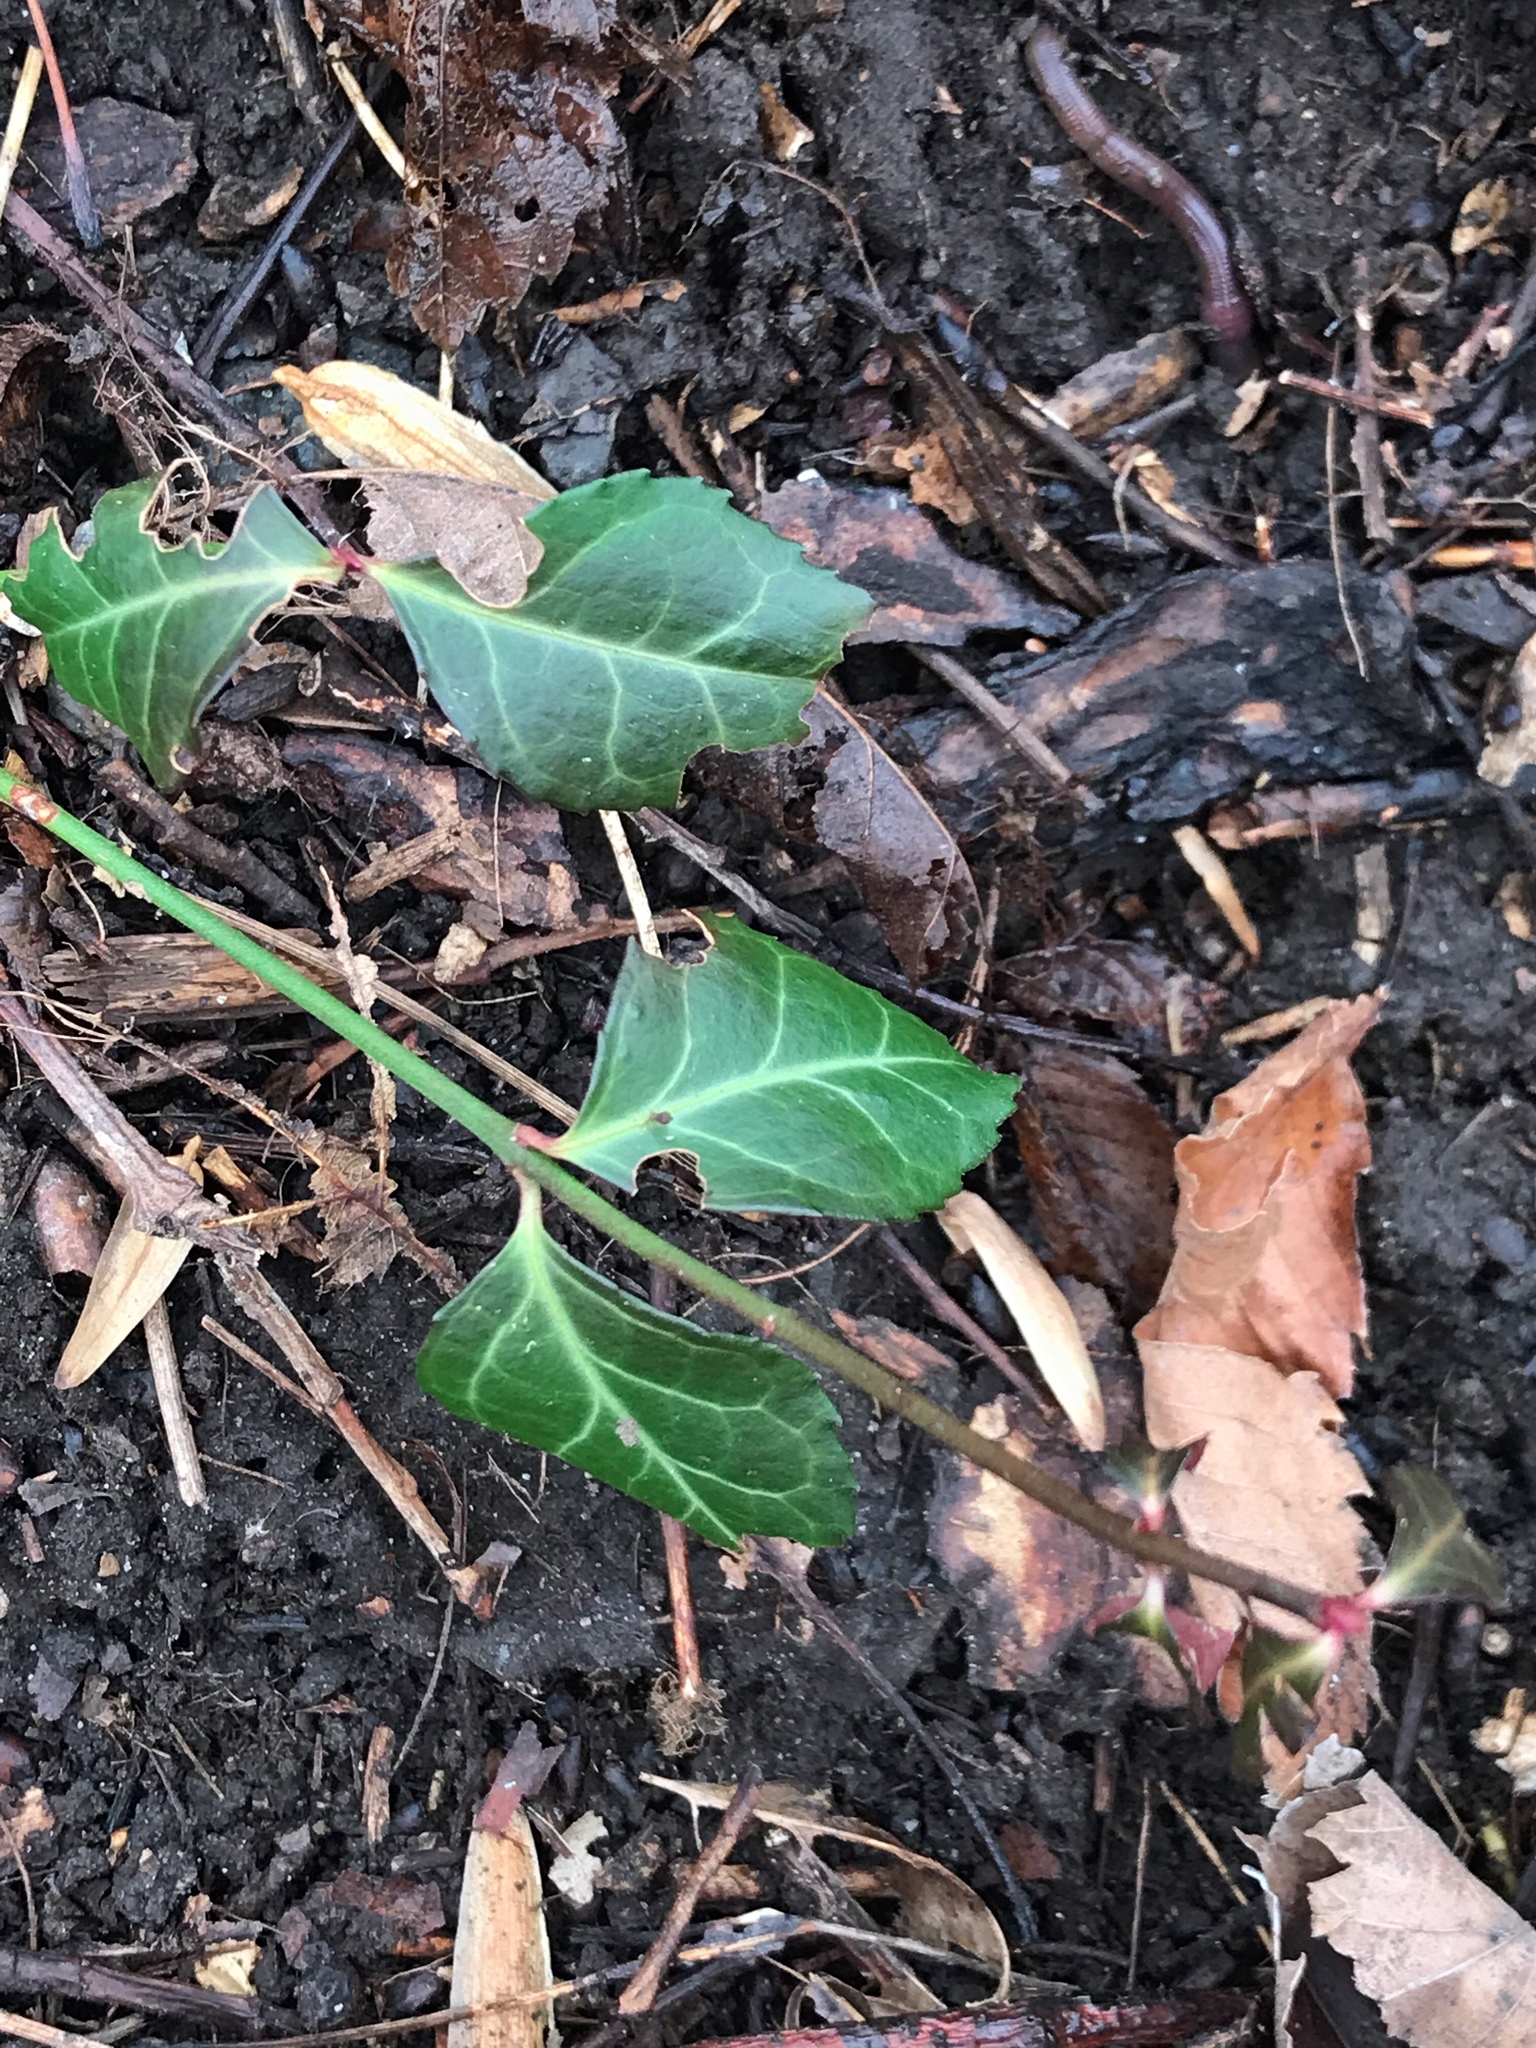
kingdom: Plantae
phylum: Tracheophyta
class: Magnoliopsida
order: Celastrales
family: Celastraceae
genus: Euonymus
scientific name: Euonymus fortunei
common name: Climbing euonymus
